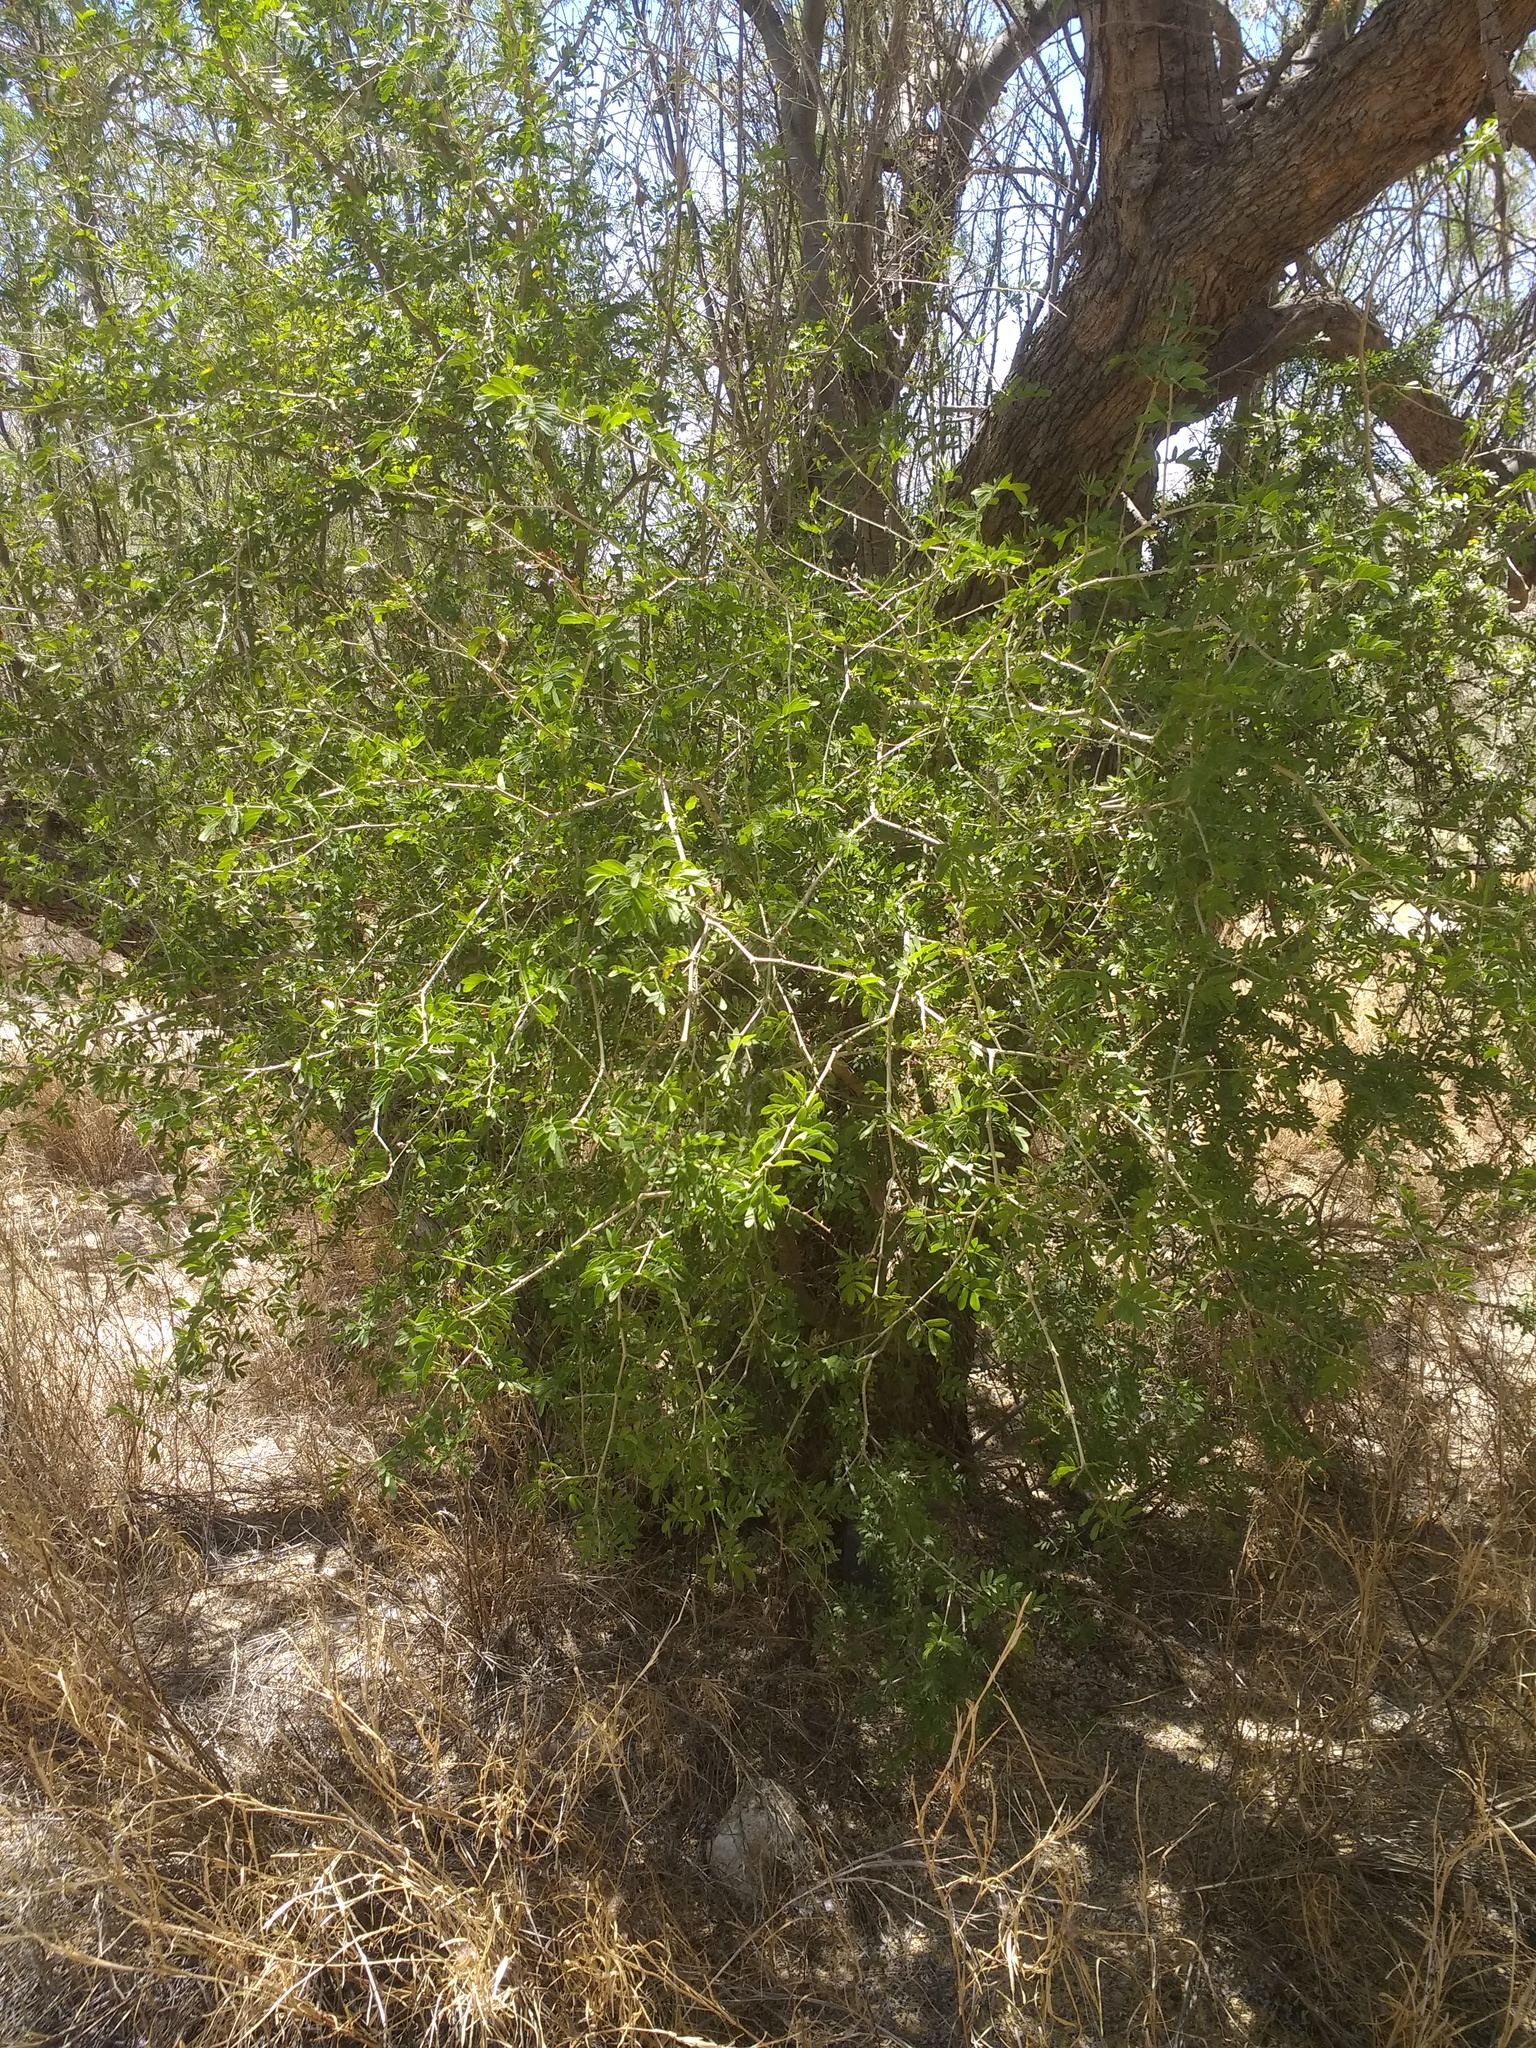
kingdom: Plantae
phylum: Tracheophyta
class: Magnoliopsida
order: Zygophyllales
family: Zygophyllaceae
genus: Guaiacum
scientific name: Guaiacum coulteri
